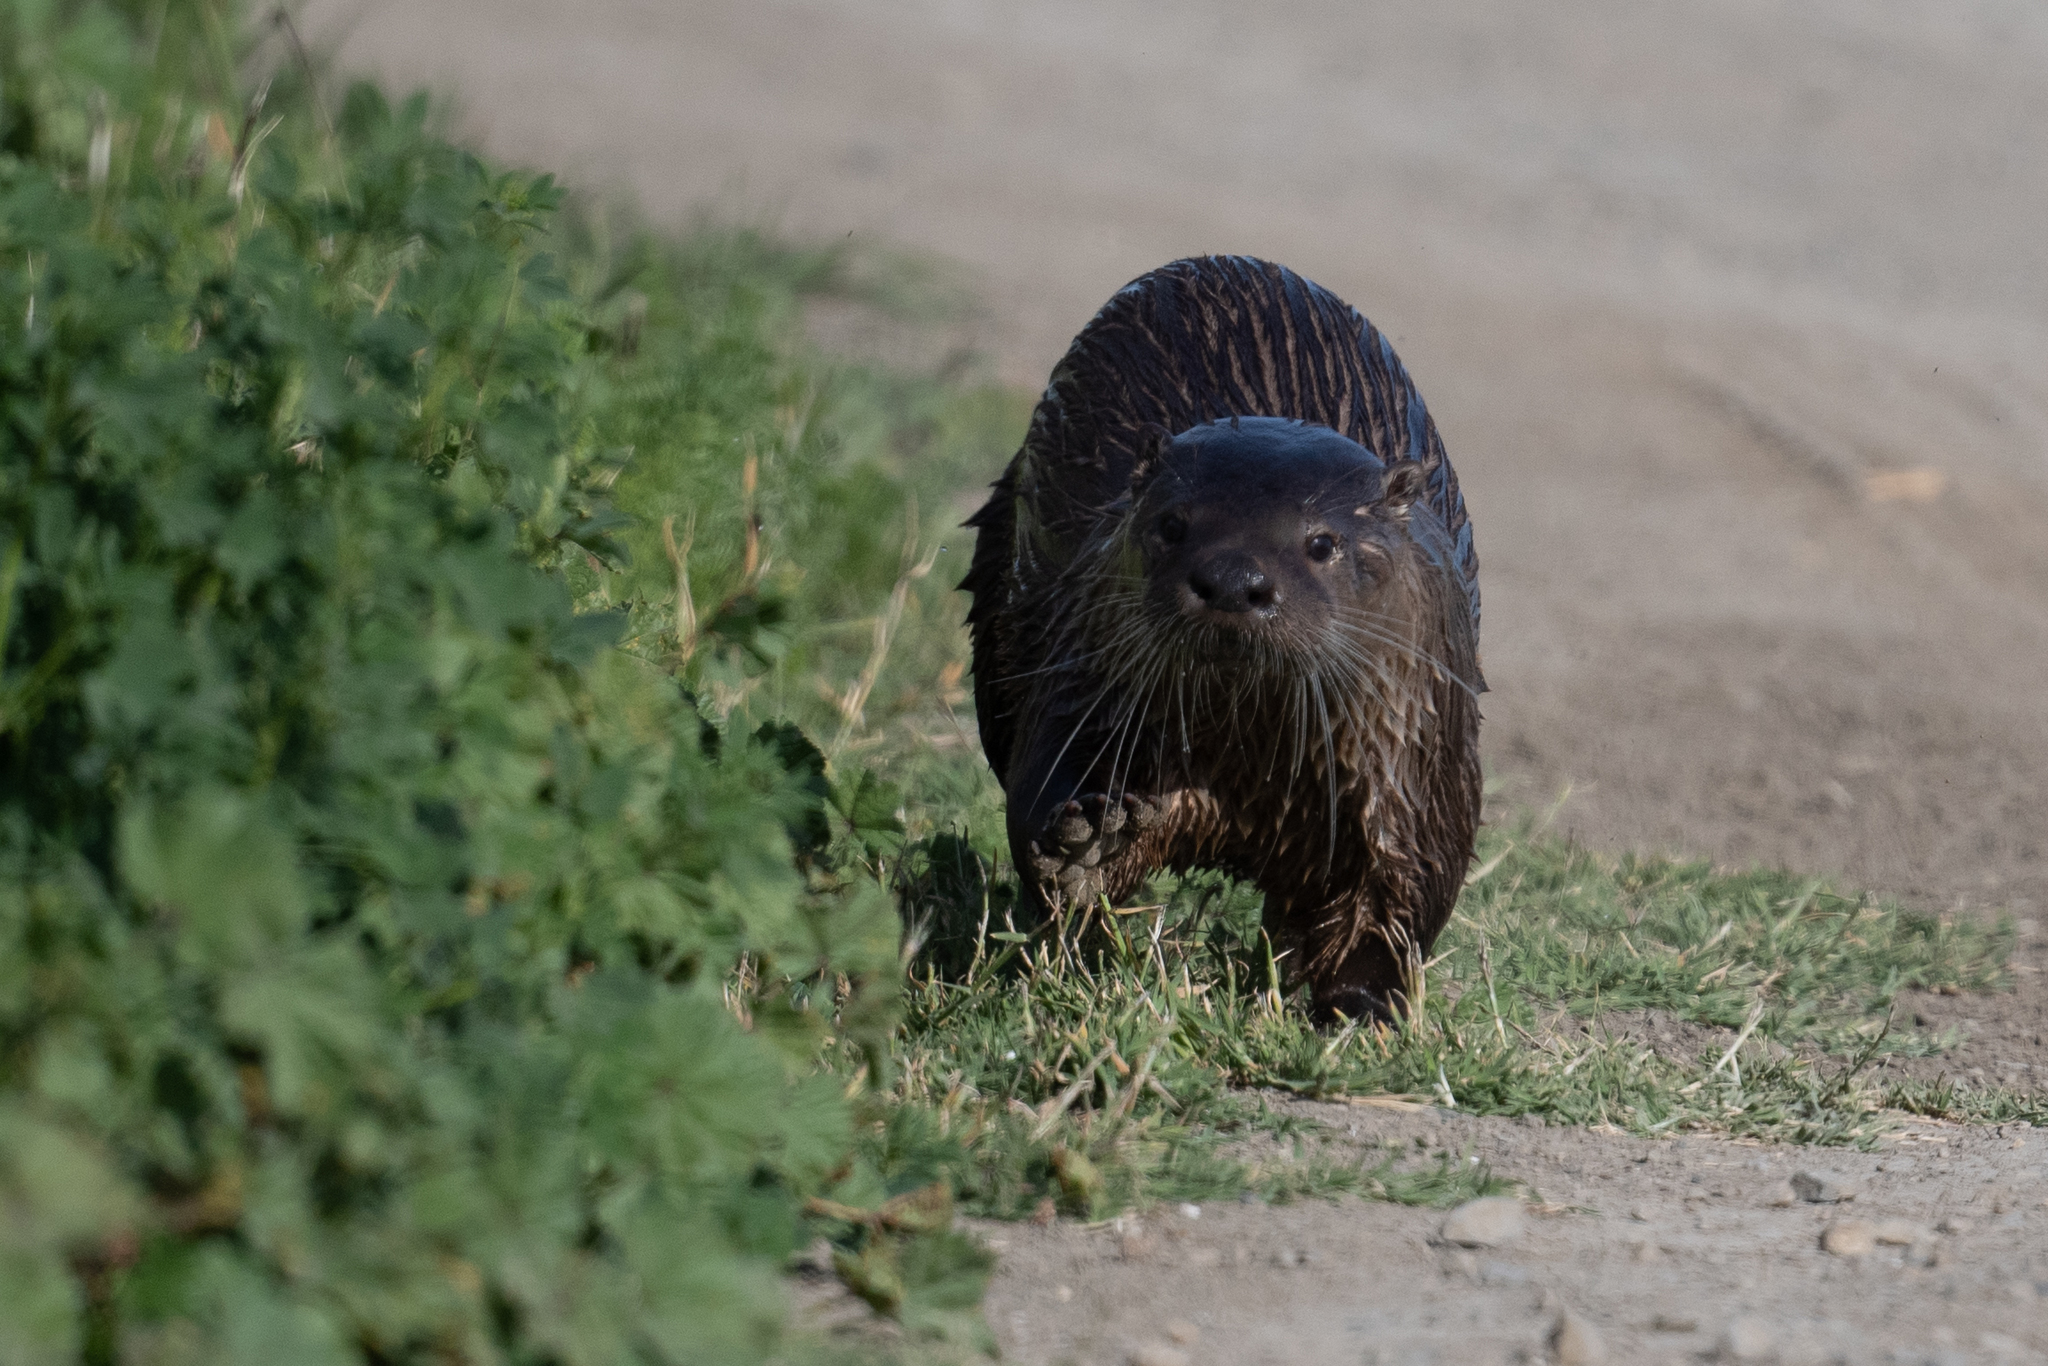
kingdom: Animalia
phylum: Chordata
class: Mammalia
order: Carnivora
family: Mustelidae
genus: Lontra
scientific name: Lontra canadensis
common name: North american river otter
